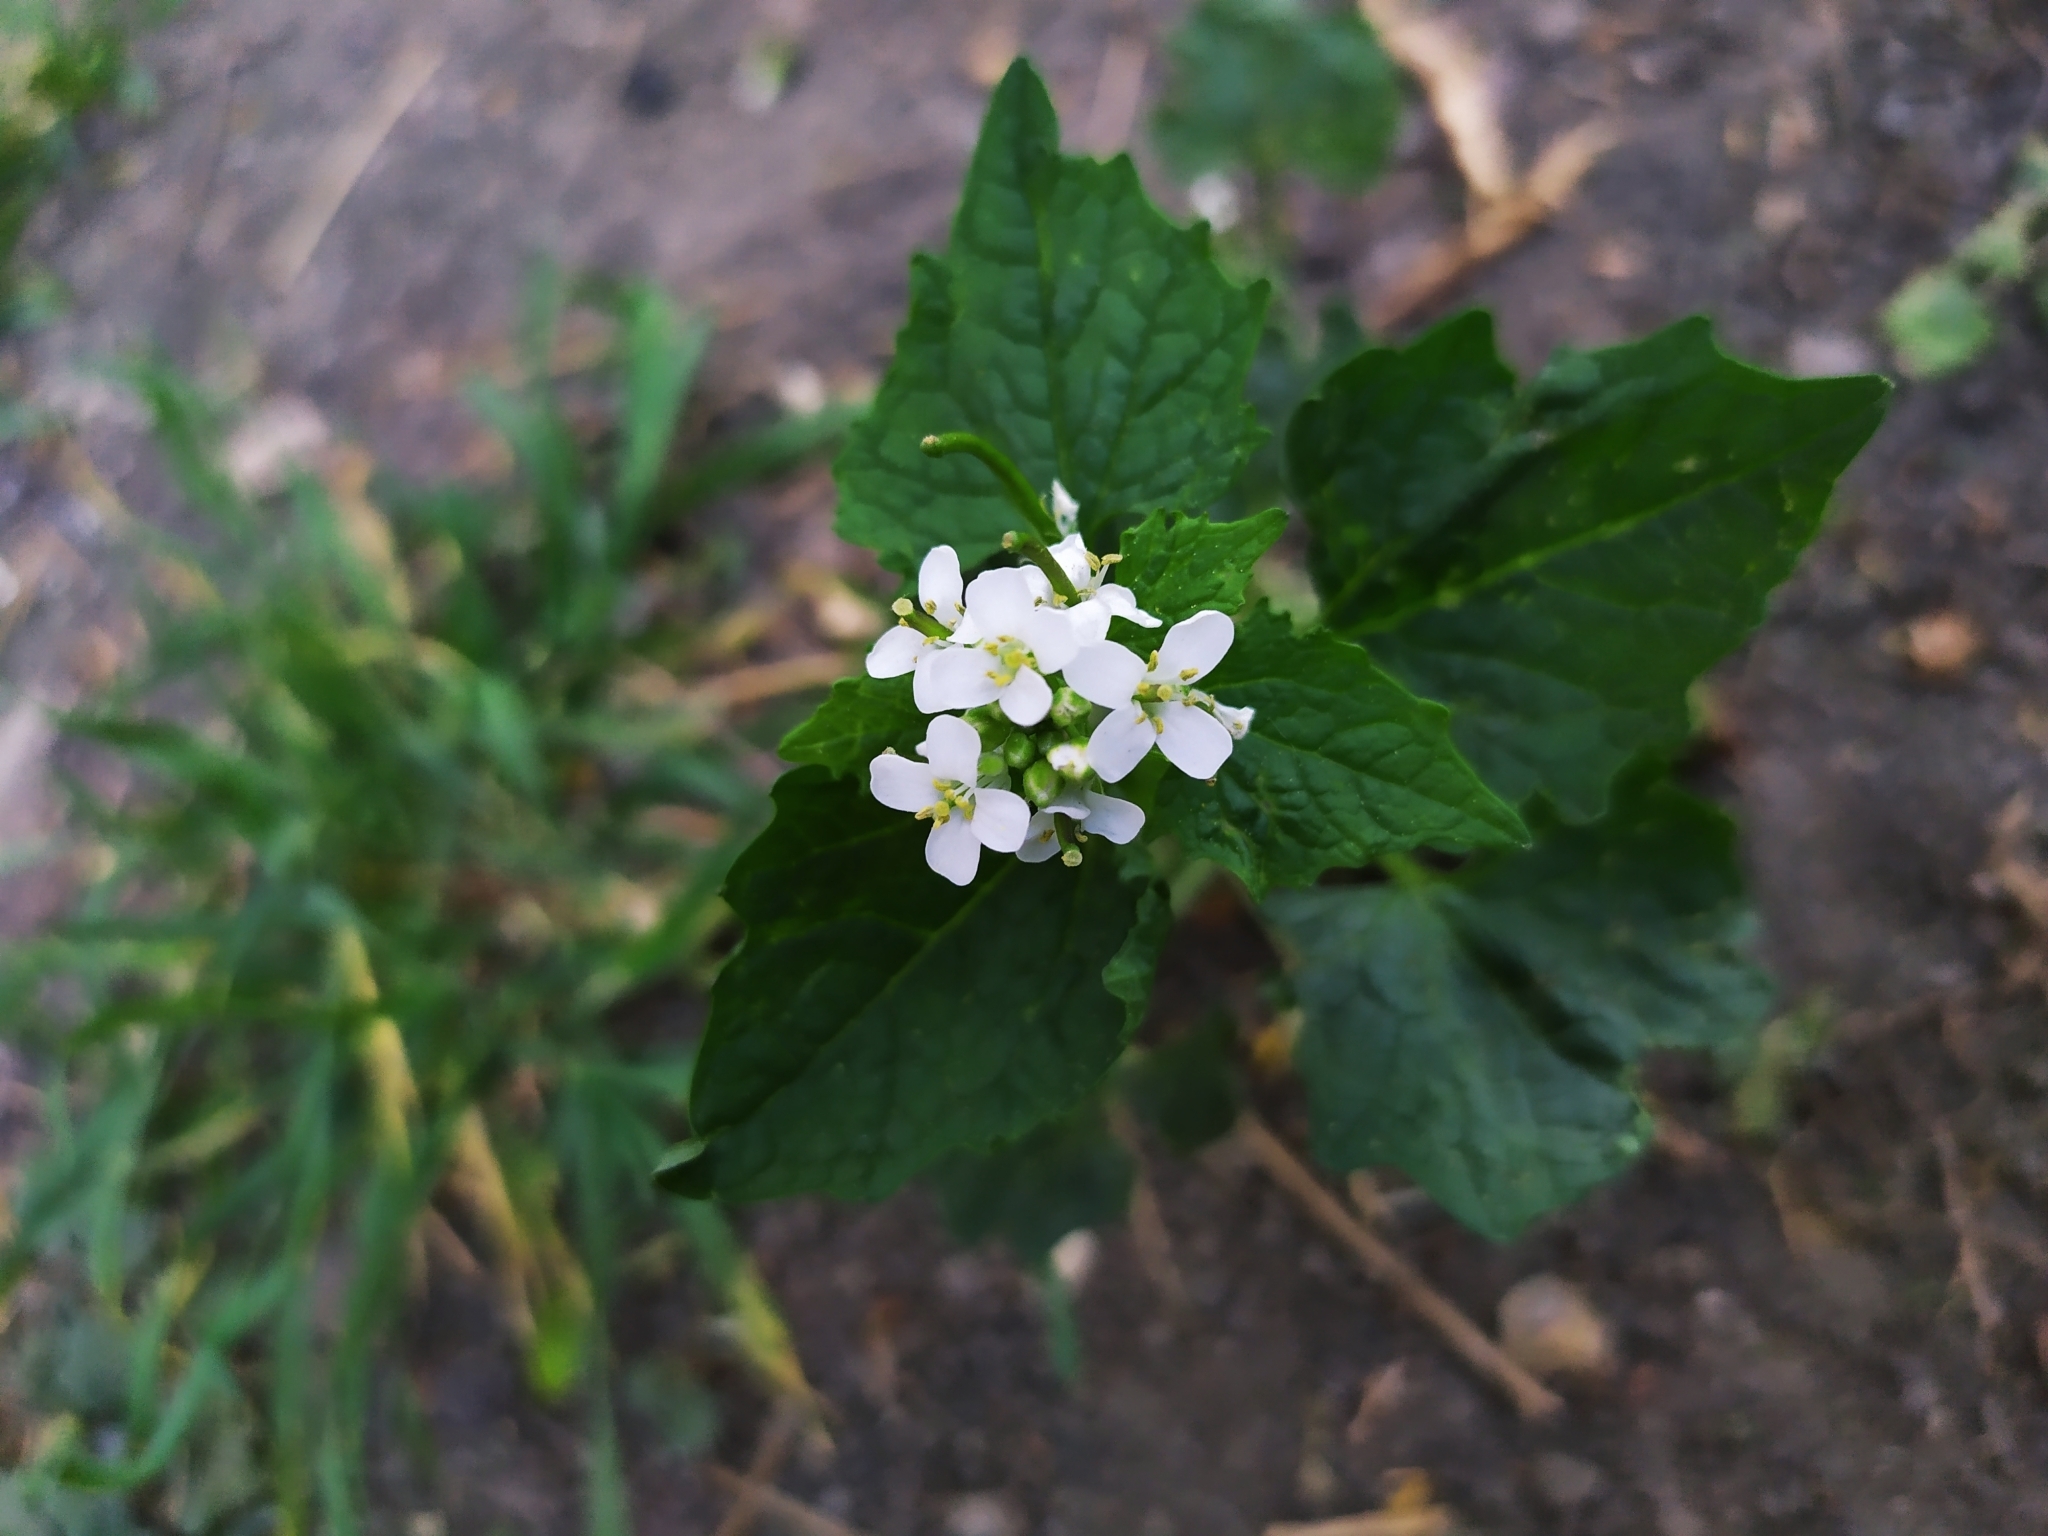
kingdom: Plantae
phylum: Tracheophyta
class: Magnoliopsida
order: Brassicales
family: Brassicaceae
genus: Alliaria
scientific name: Alliaria petiolata
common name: Garlic mustard
